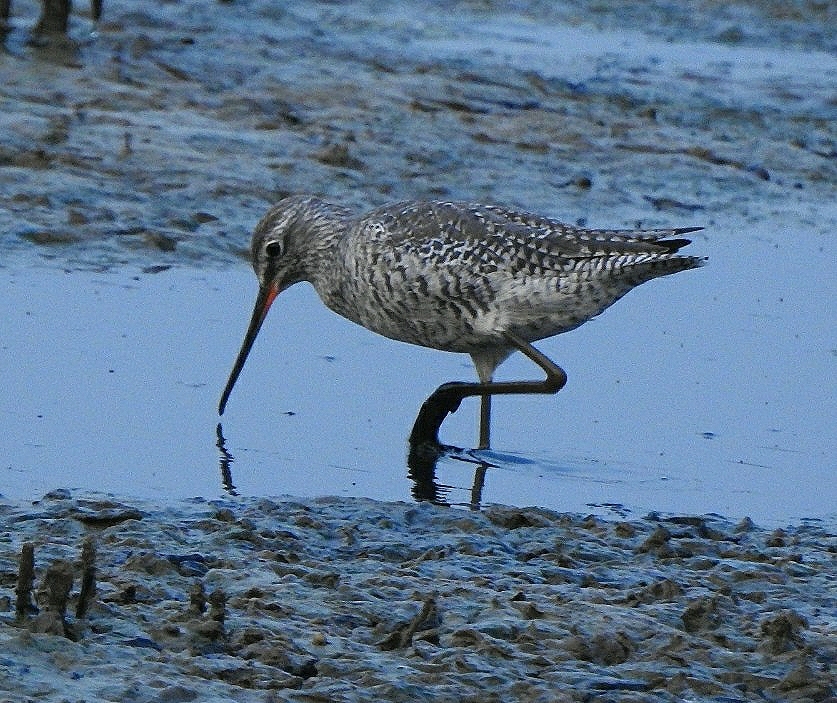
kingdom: Animalia
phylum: Chordata
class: Aves
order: Charadriiformes
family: Scolopacidae
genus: Tringa
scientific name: Tringa erythropus
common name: Spotted redshank
